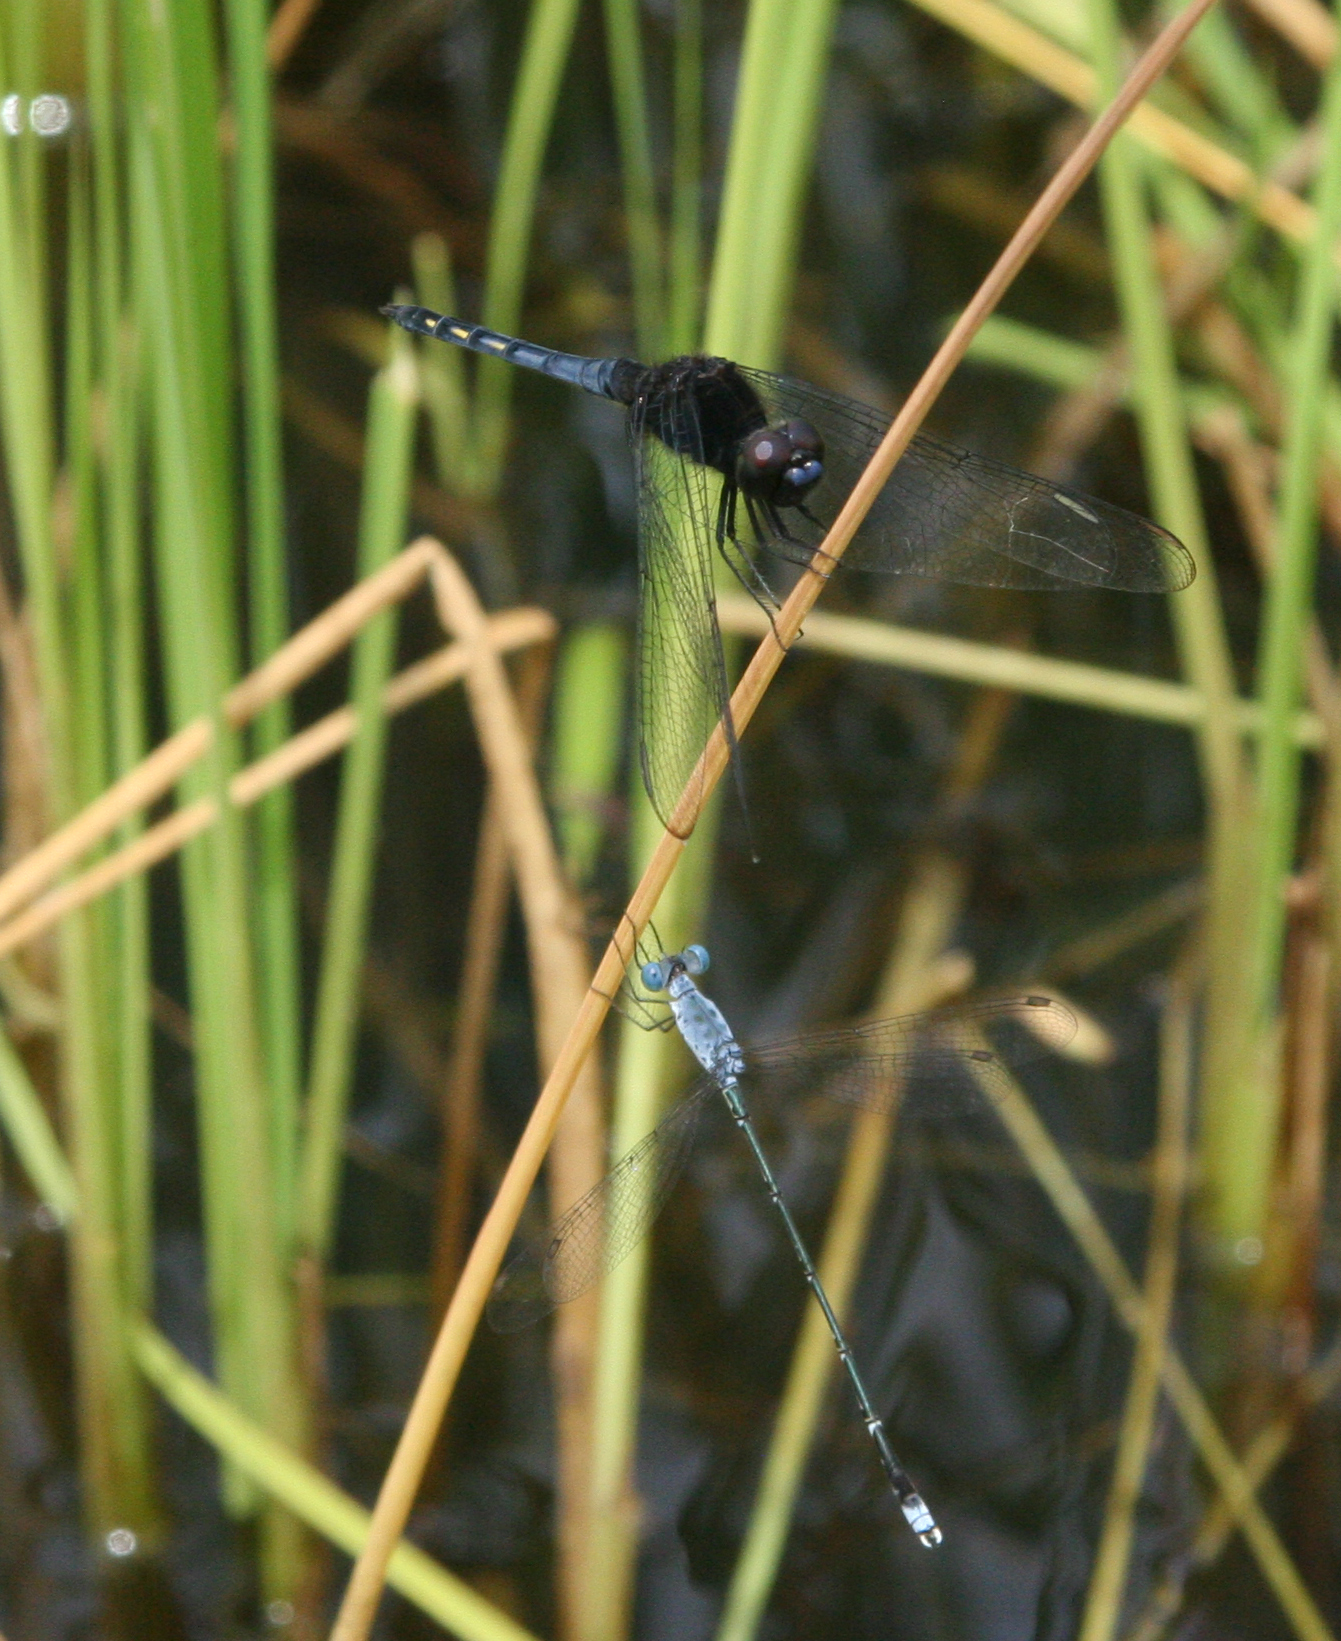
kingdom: Animalia
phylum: Arthropoda
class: Insecta
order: Odonata
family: Lestidae
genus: Lestes
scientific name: Lestes praemorsus
